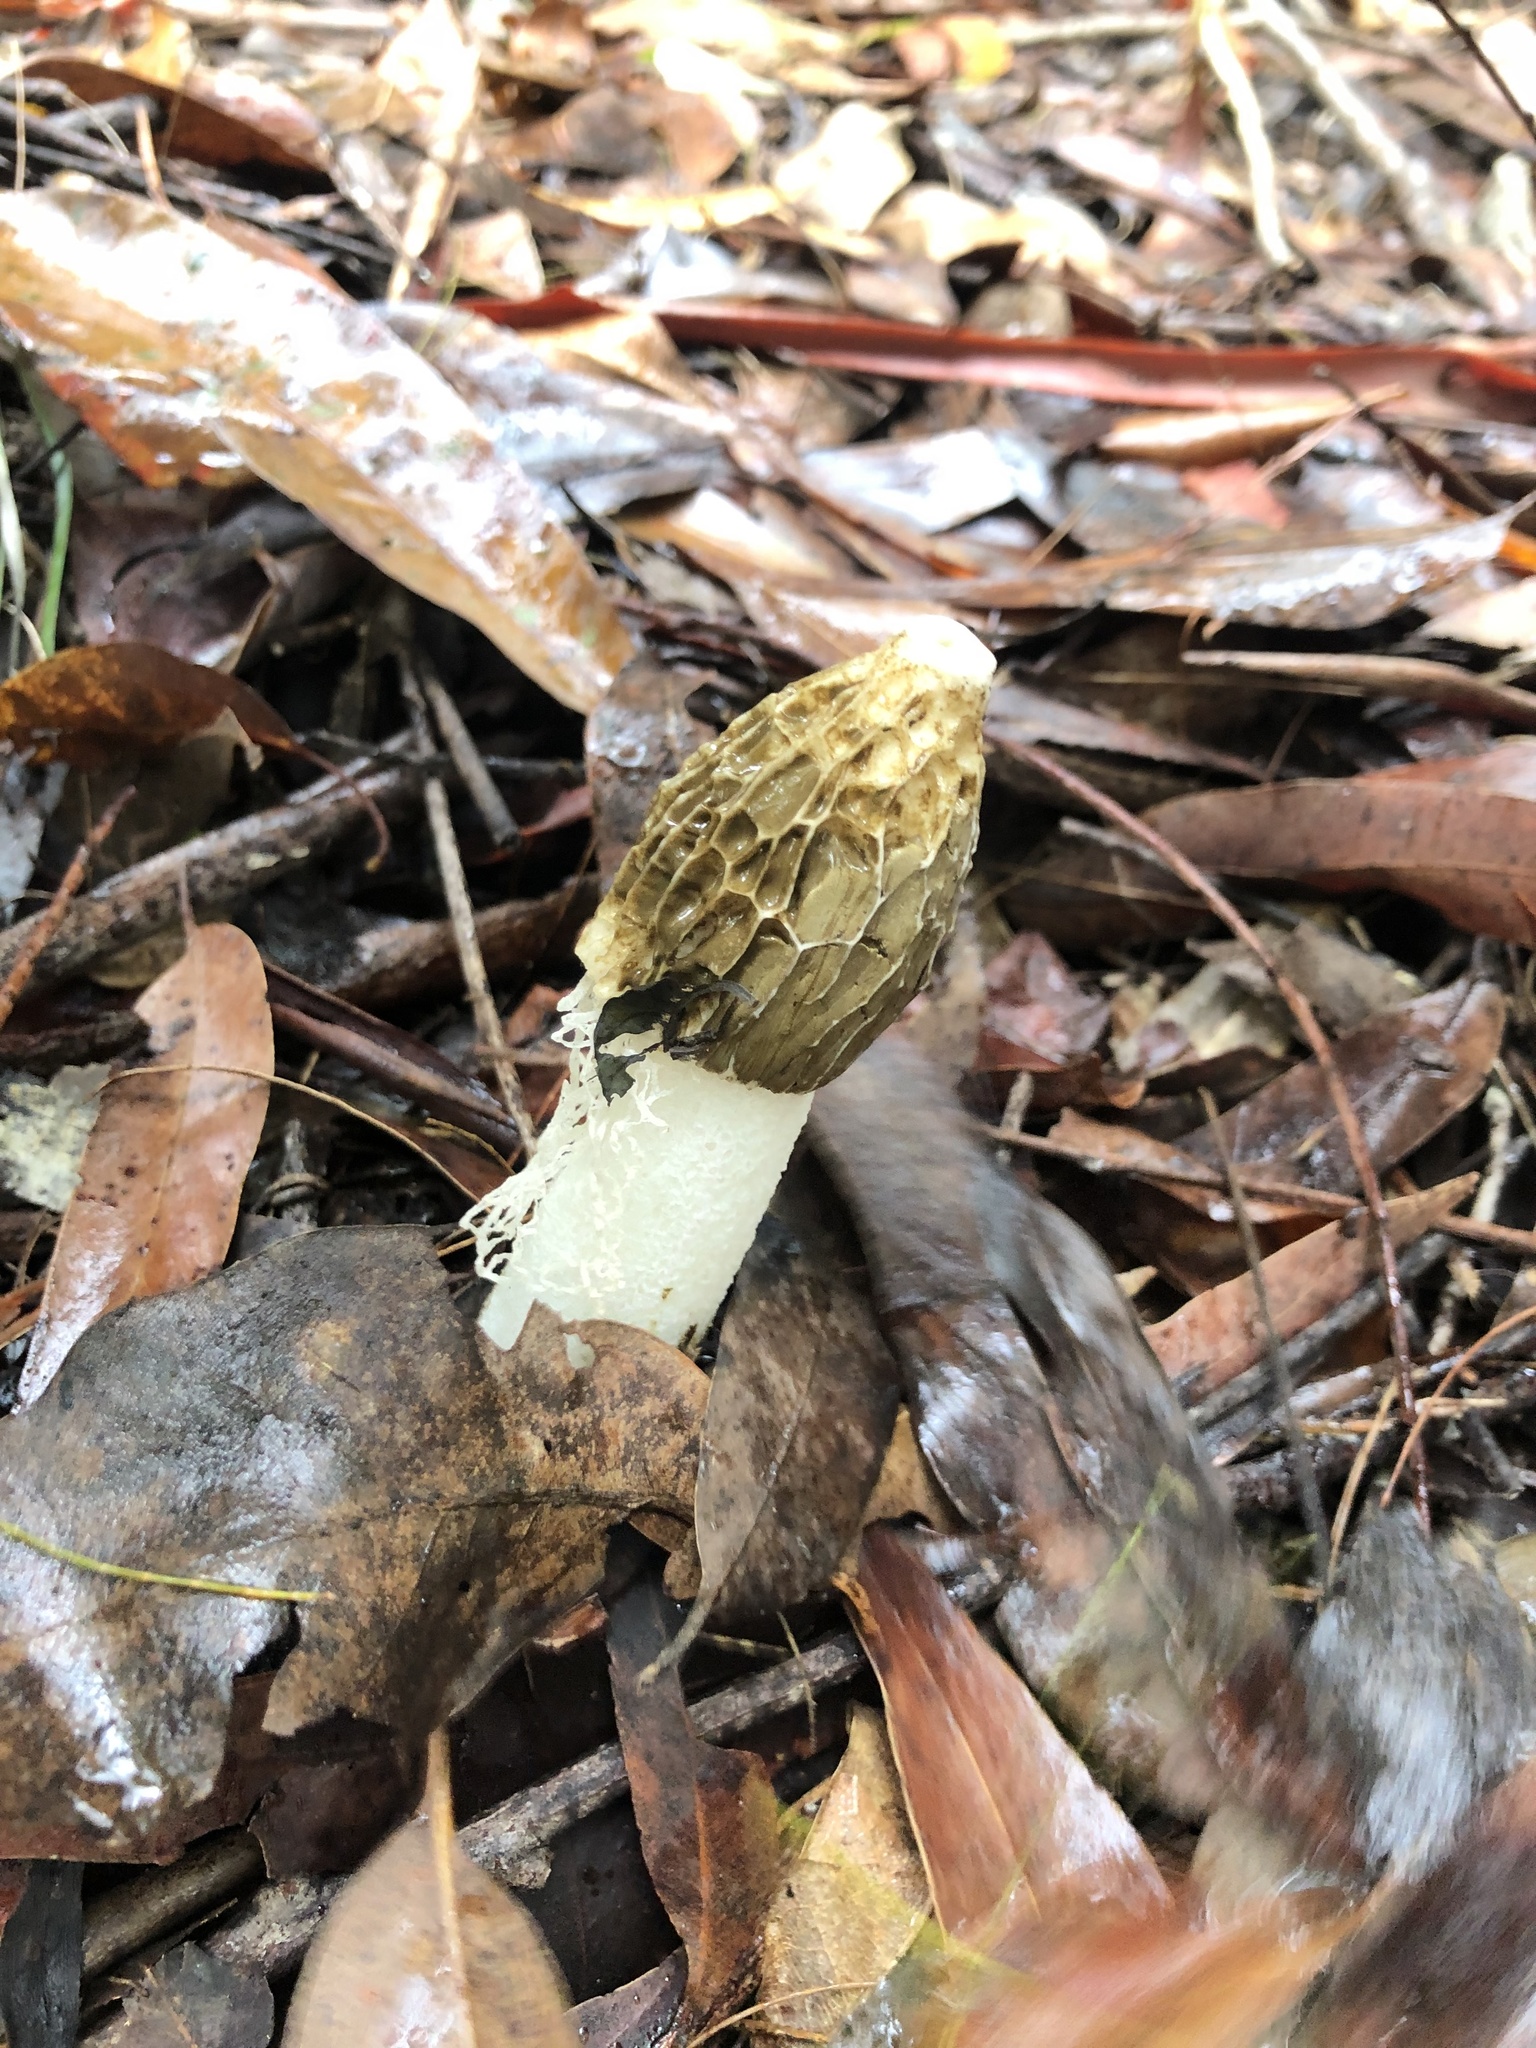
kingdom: Fungi
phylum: Basidiomycota
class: Agaricomycetes
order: Phallales
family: Phallaceae
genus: Phallus
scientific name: Phallus indusiatus
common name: Bridal veil stinkhorn
